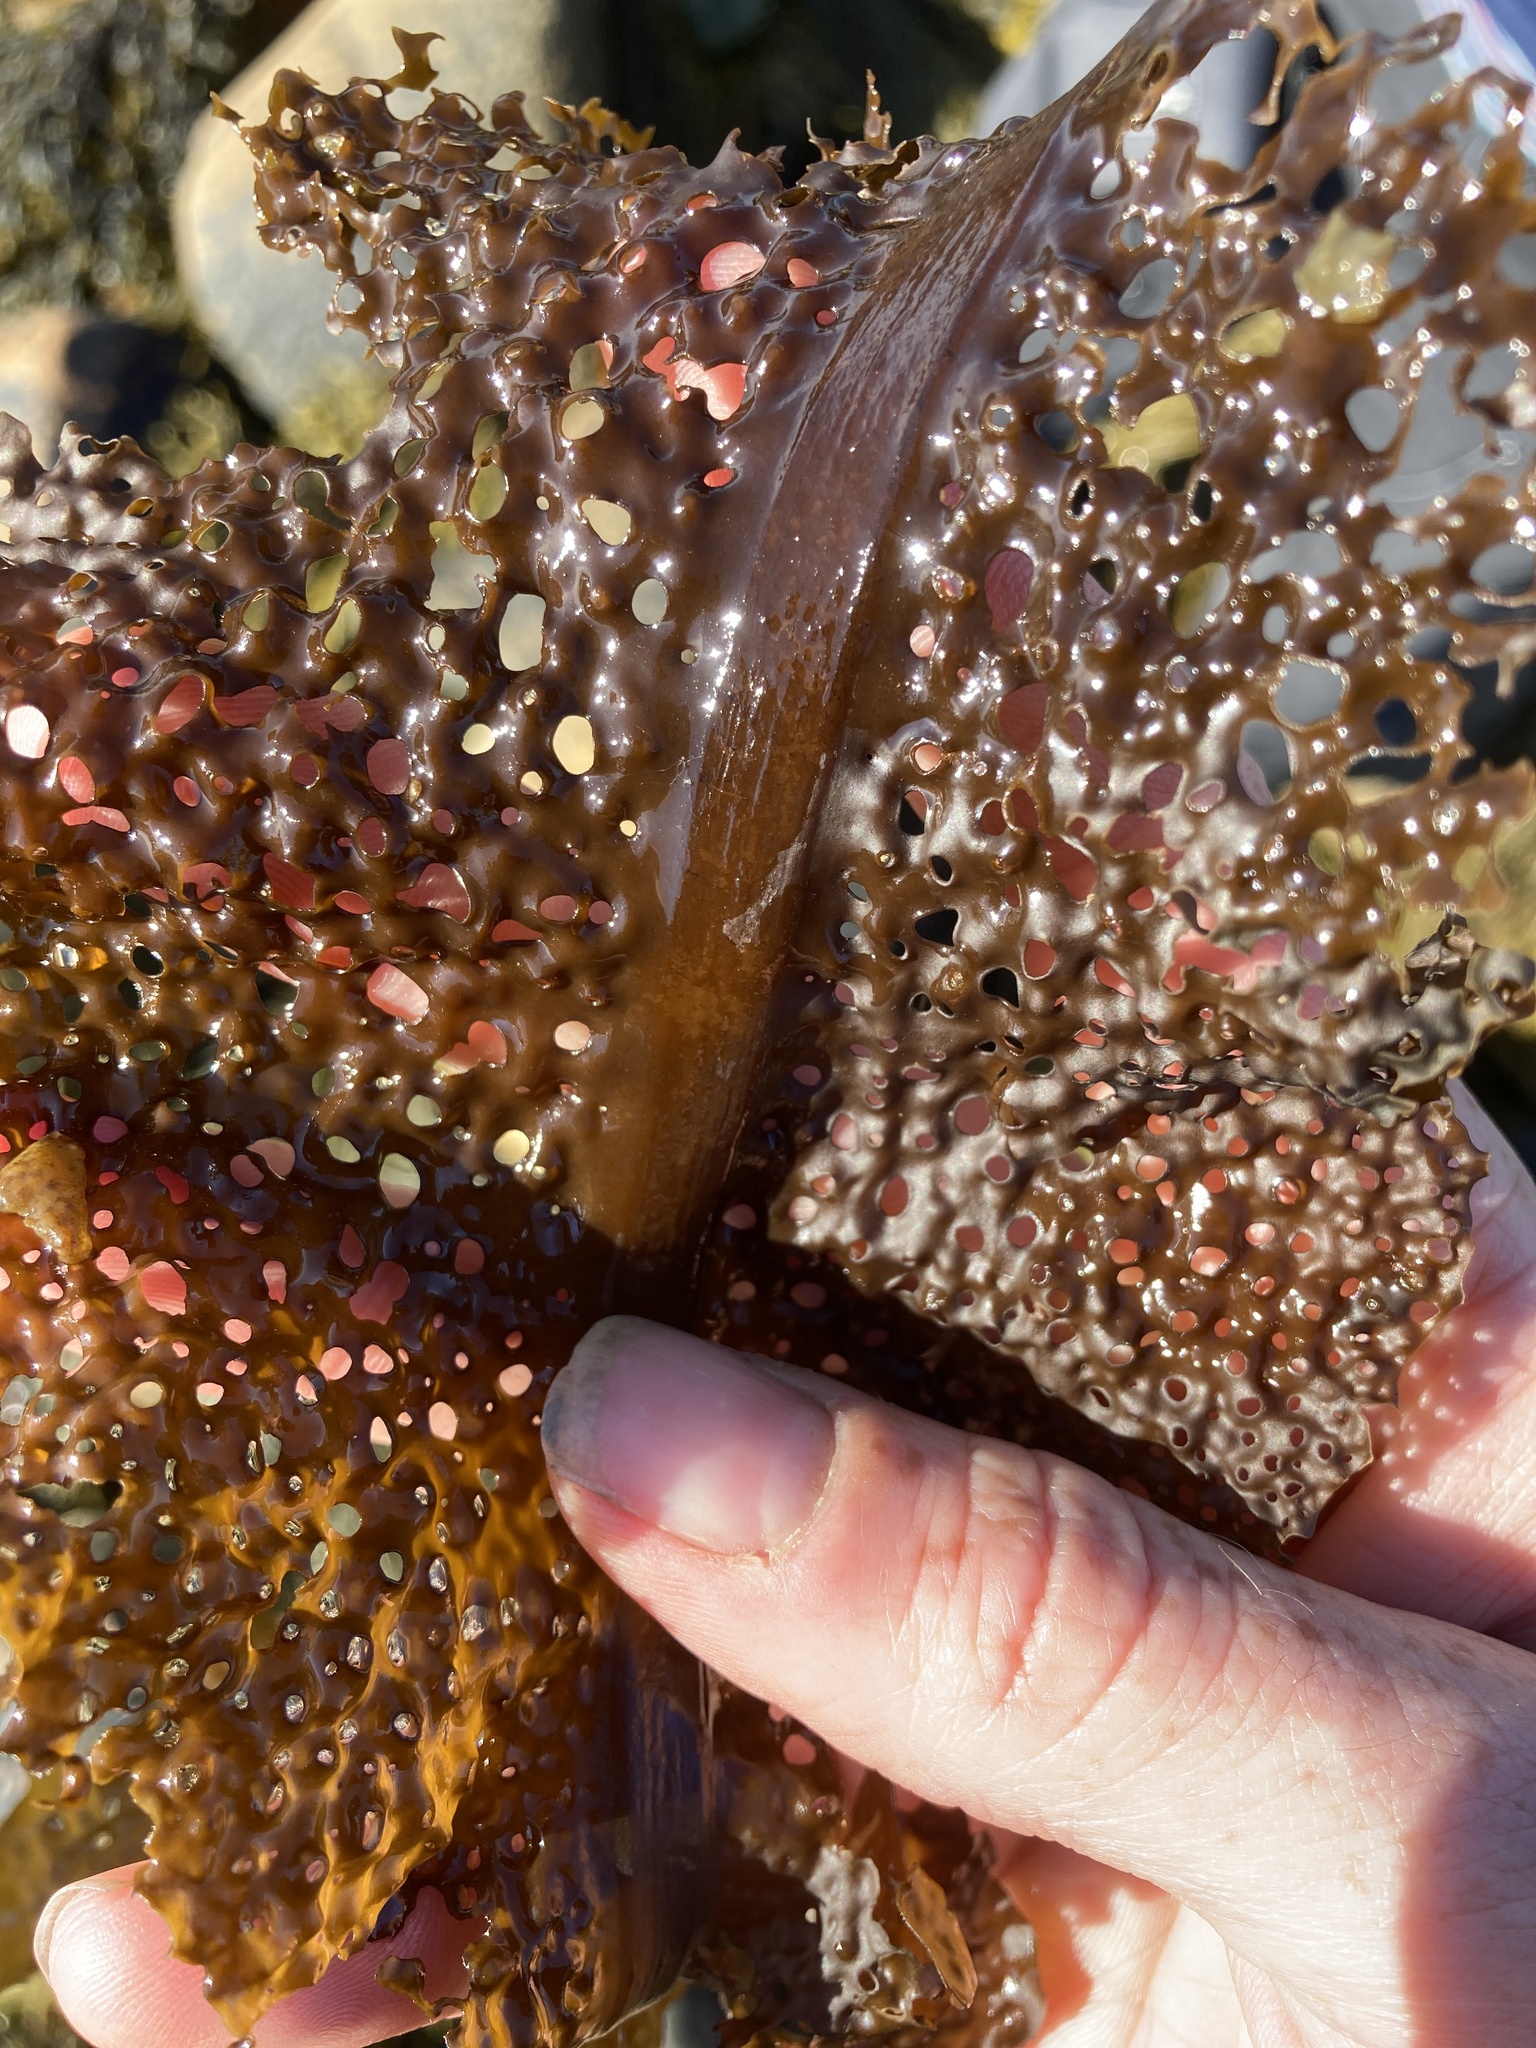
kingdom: Chromista
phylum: Ochrophyta
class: Phaeophyceae
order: Laminariales
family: Costariaceae
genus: Agarum
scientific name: Agarum clathratum
